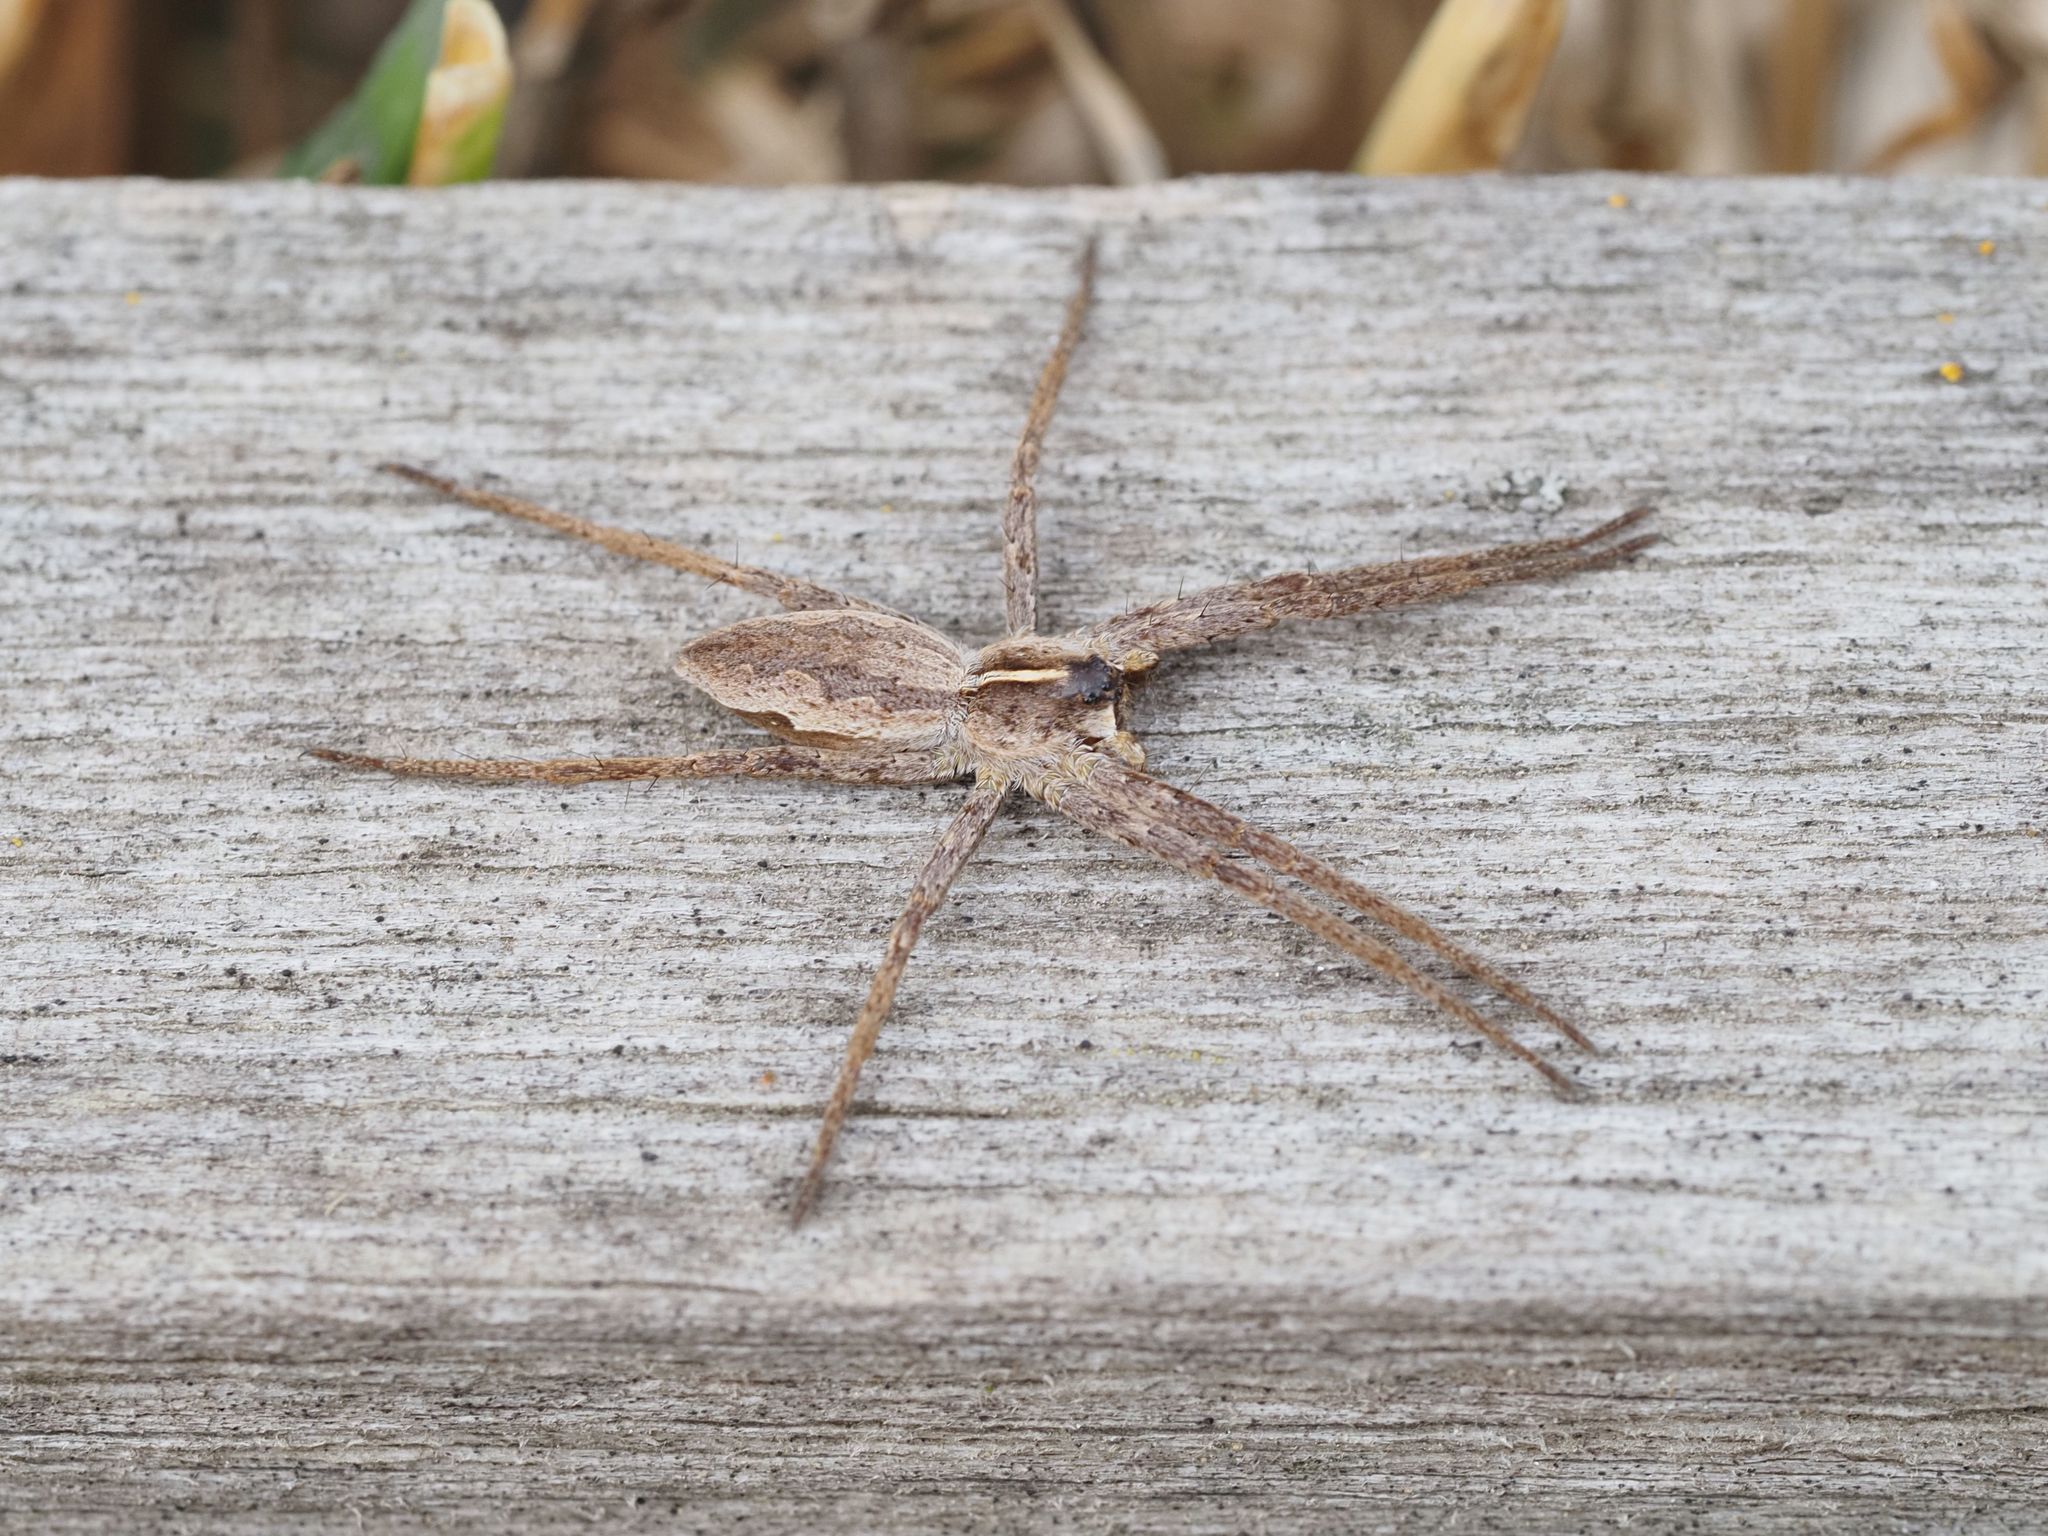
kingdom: Animalia
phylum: Arthropoda
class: Arachnida
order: Araneae
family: Pisauridae
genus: Pisaura
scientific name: Pisaura mirabilis
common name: Tent spider
